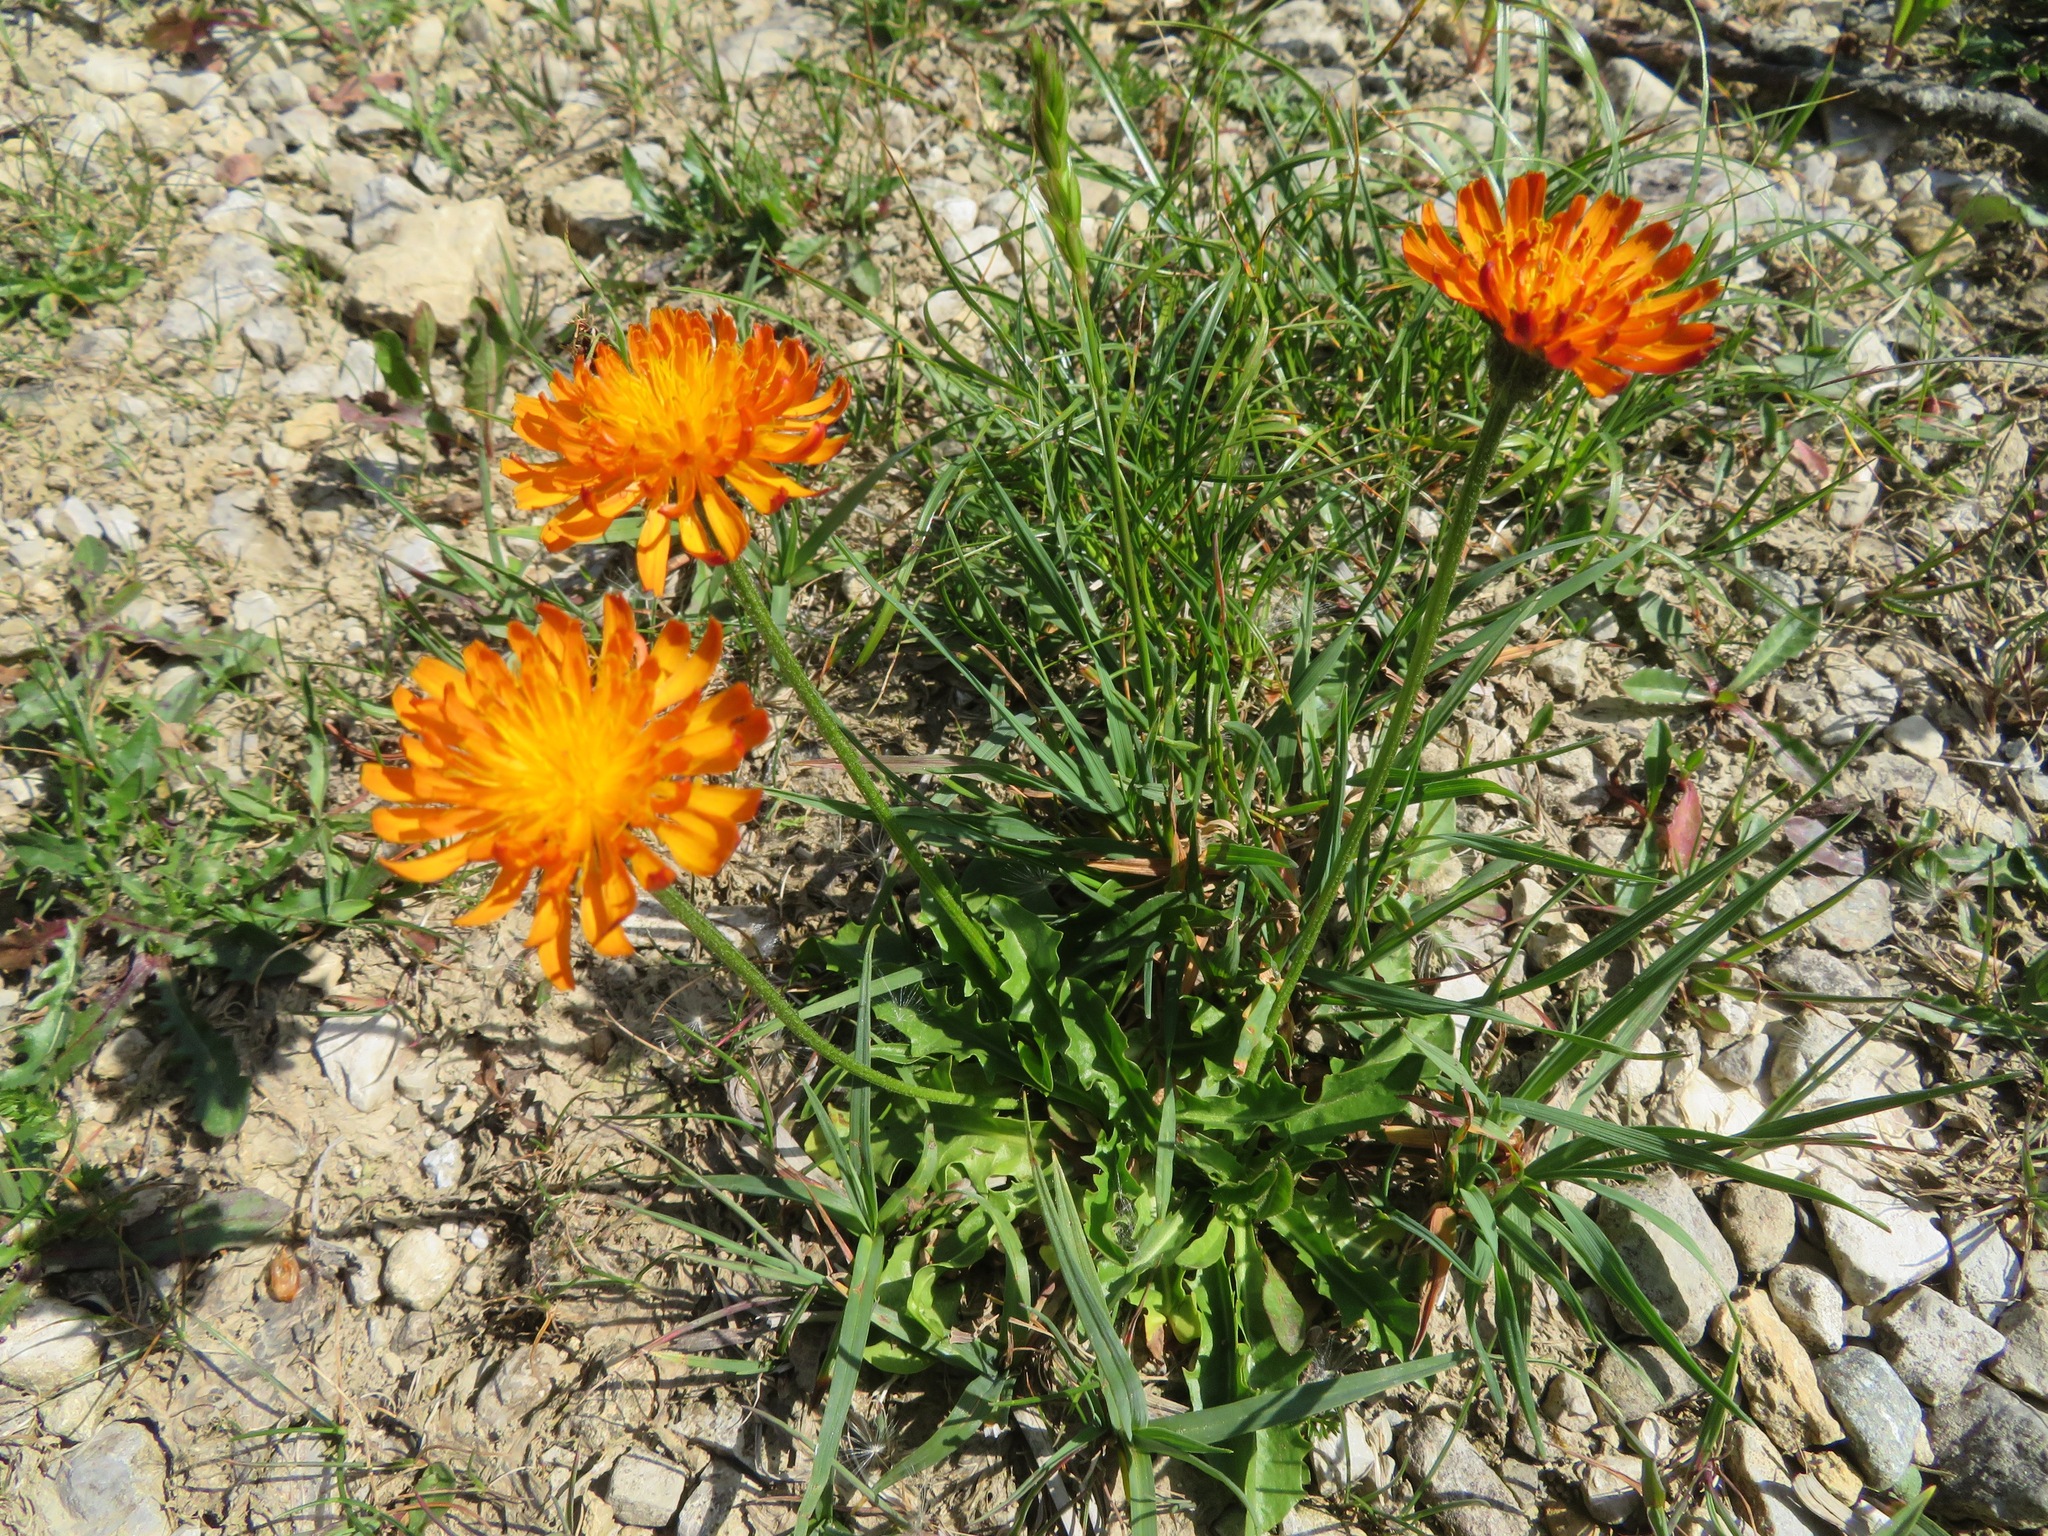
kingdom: Plantae
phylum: Tracheophyta
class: Magnoliopsida
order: Asterales
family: Asteraceae
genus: Crepis
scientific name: Crepis aurea
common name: Golden hawk's-beard
